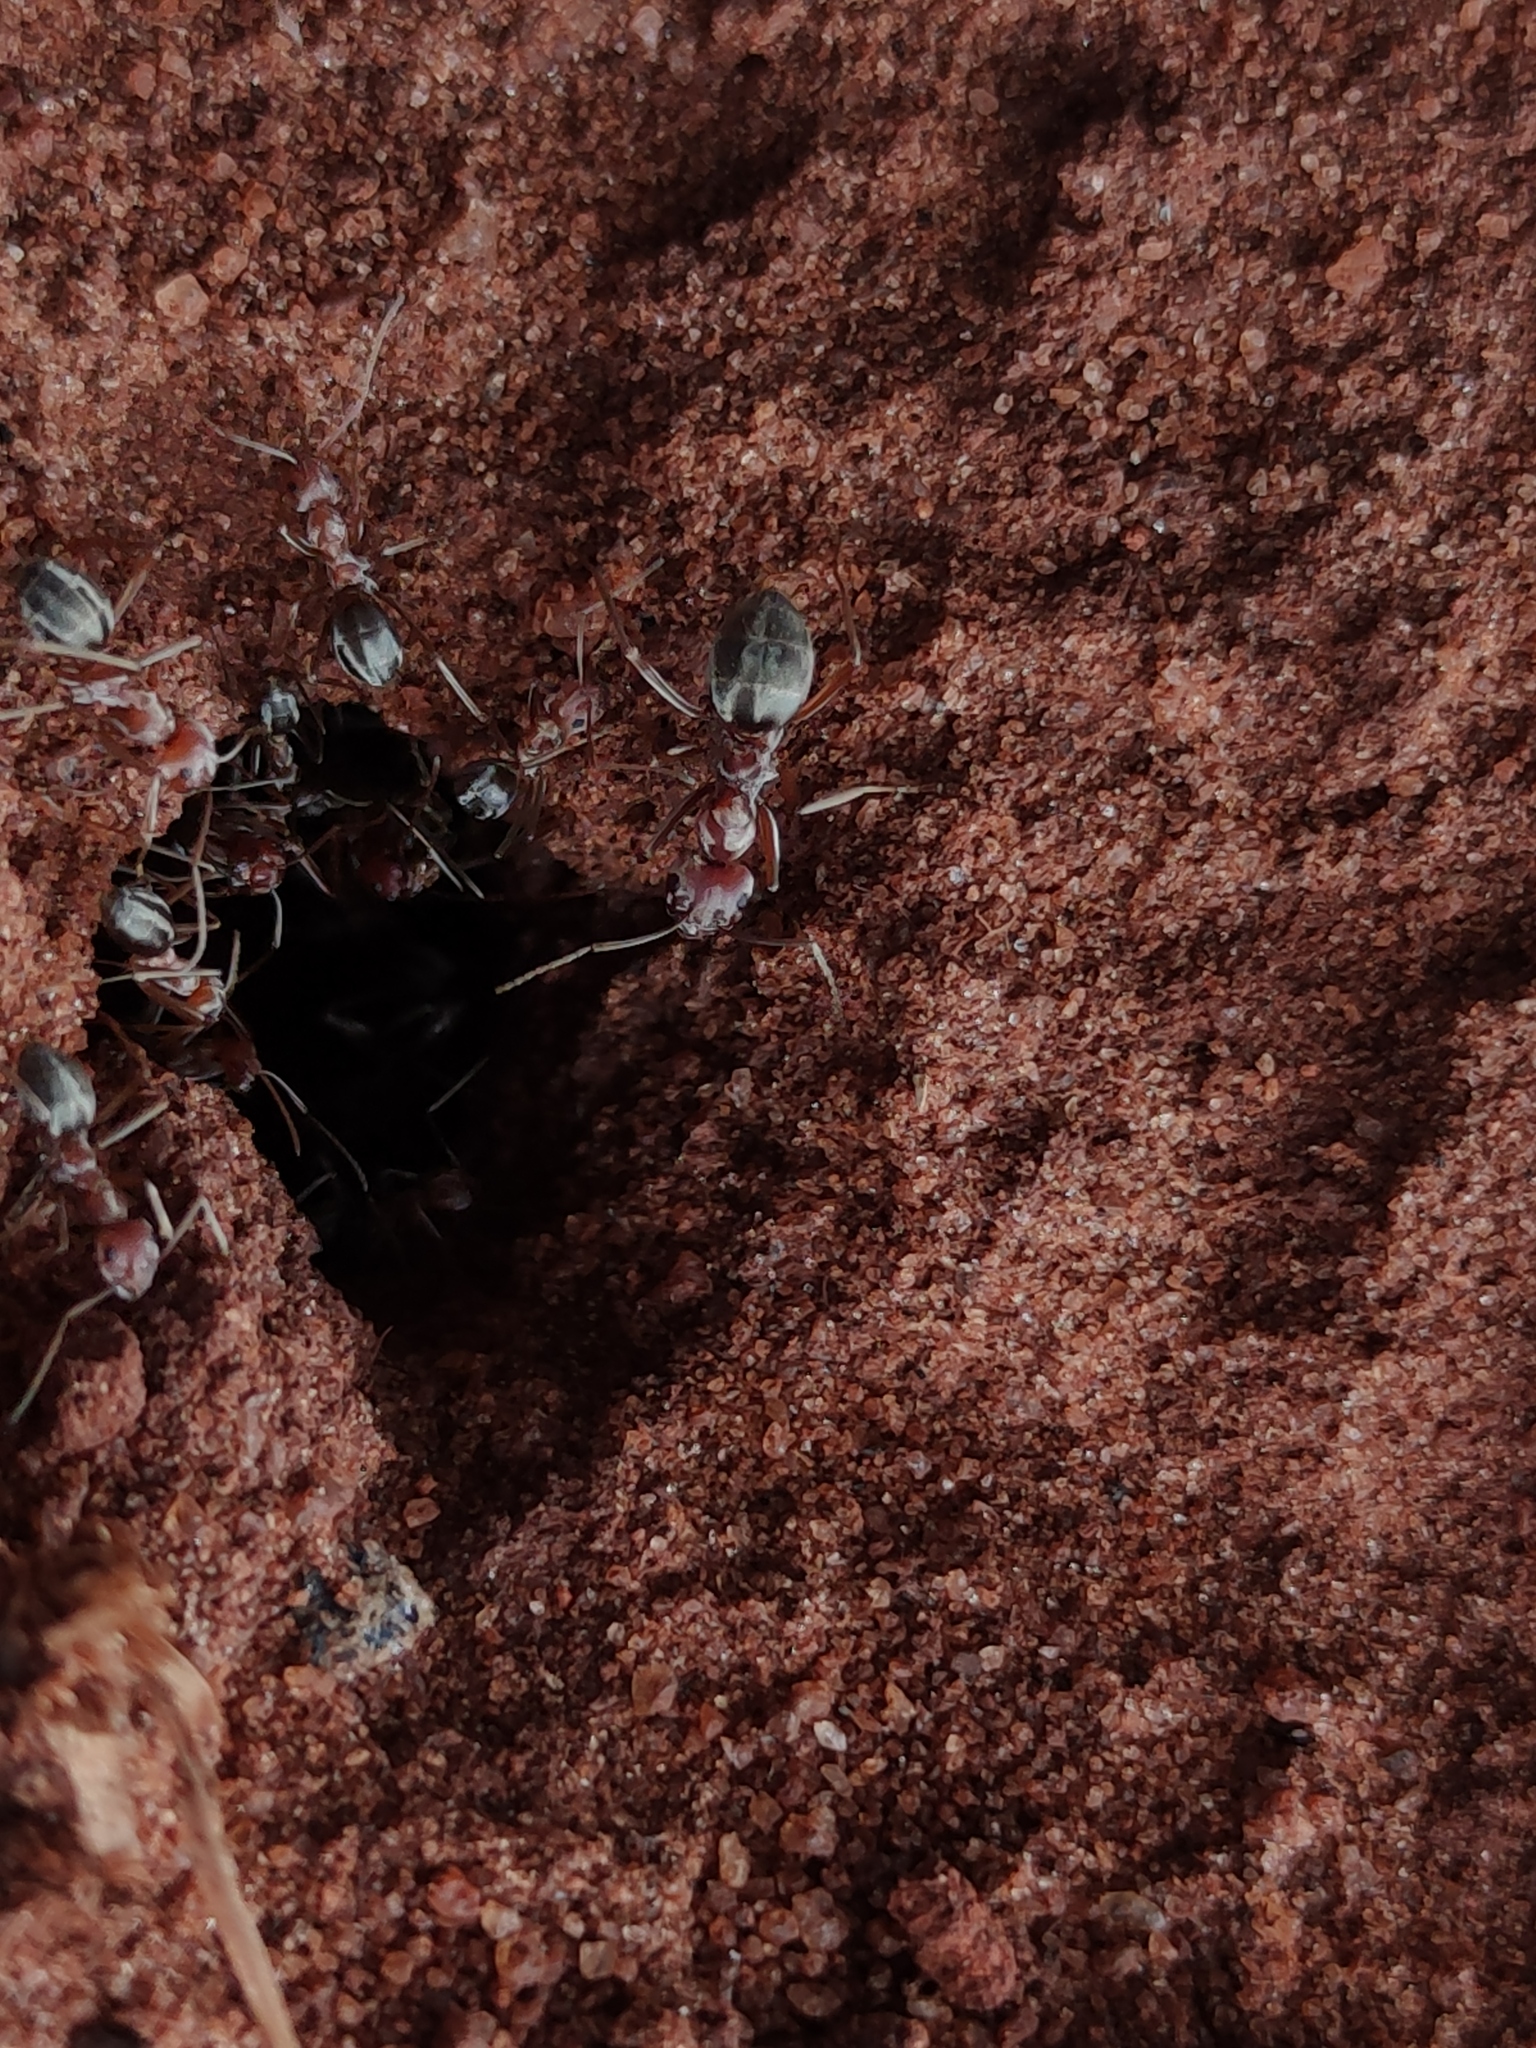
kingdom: Animalia
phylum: Arthropoda
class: Insecta
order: Hymenoptera
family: Formicidae
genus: Anoplolepis
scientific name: Anoplolepis custodiens
